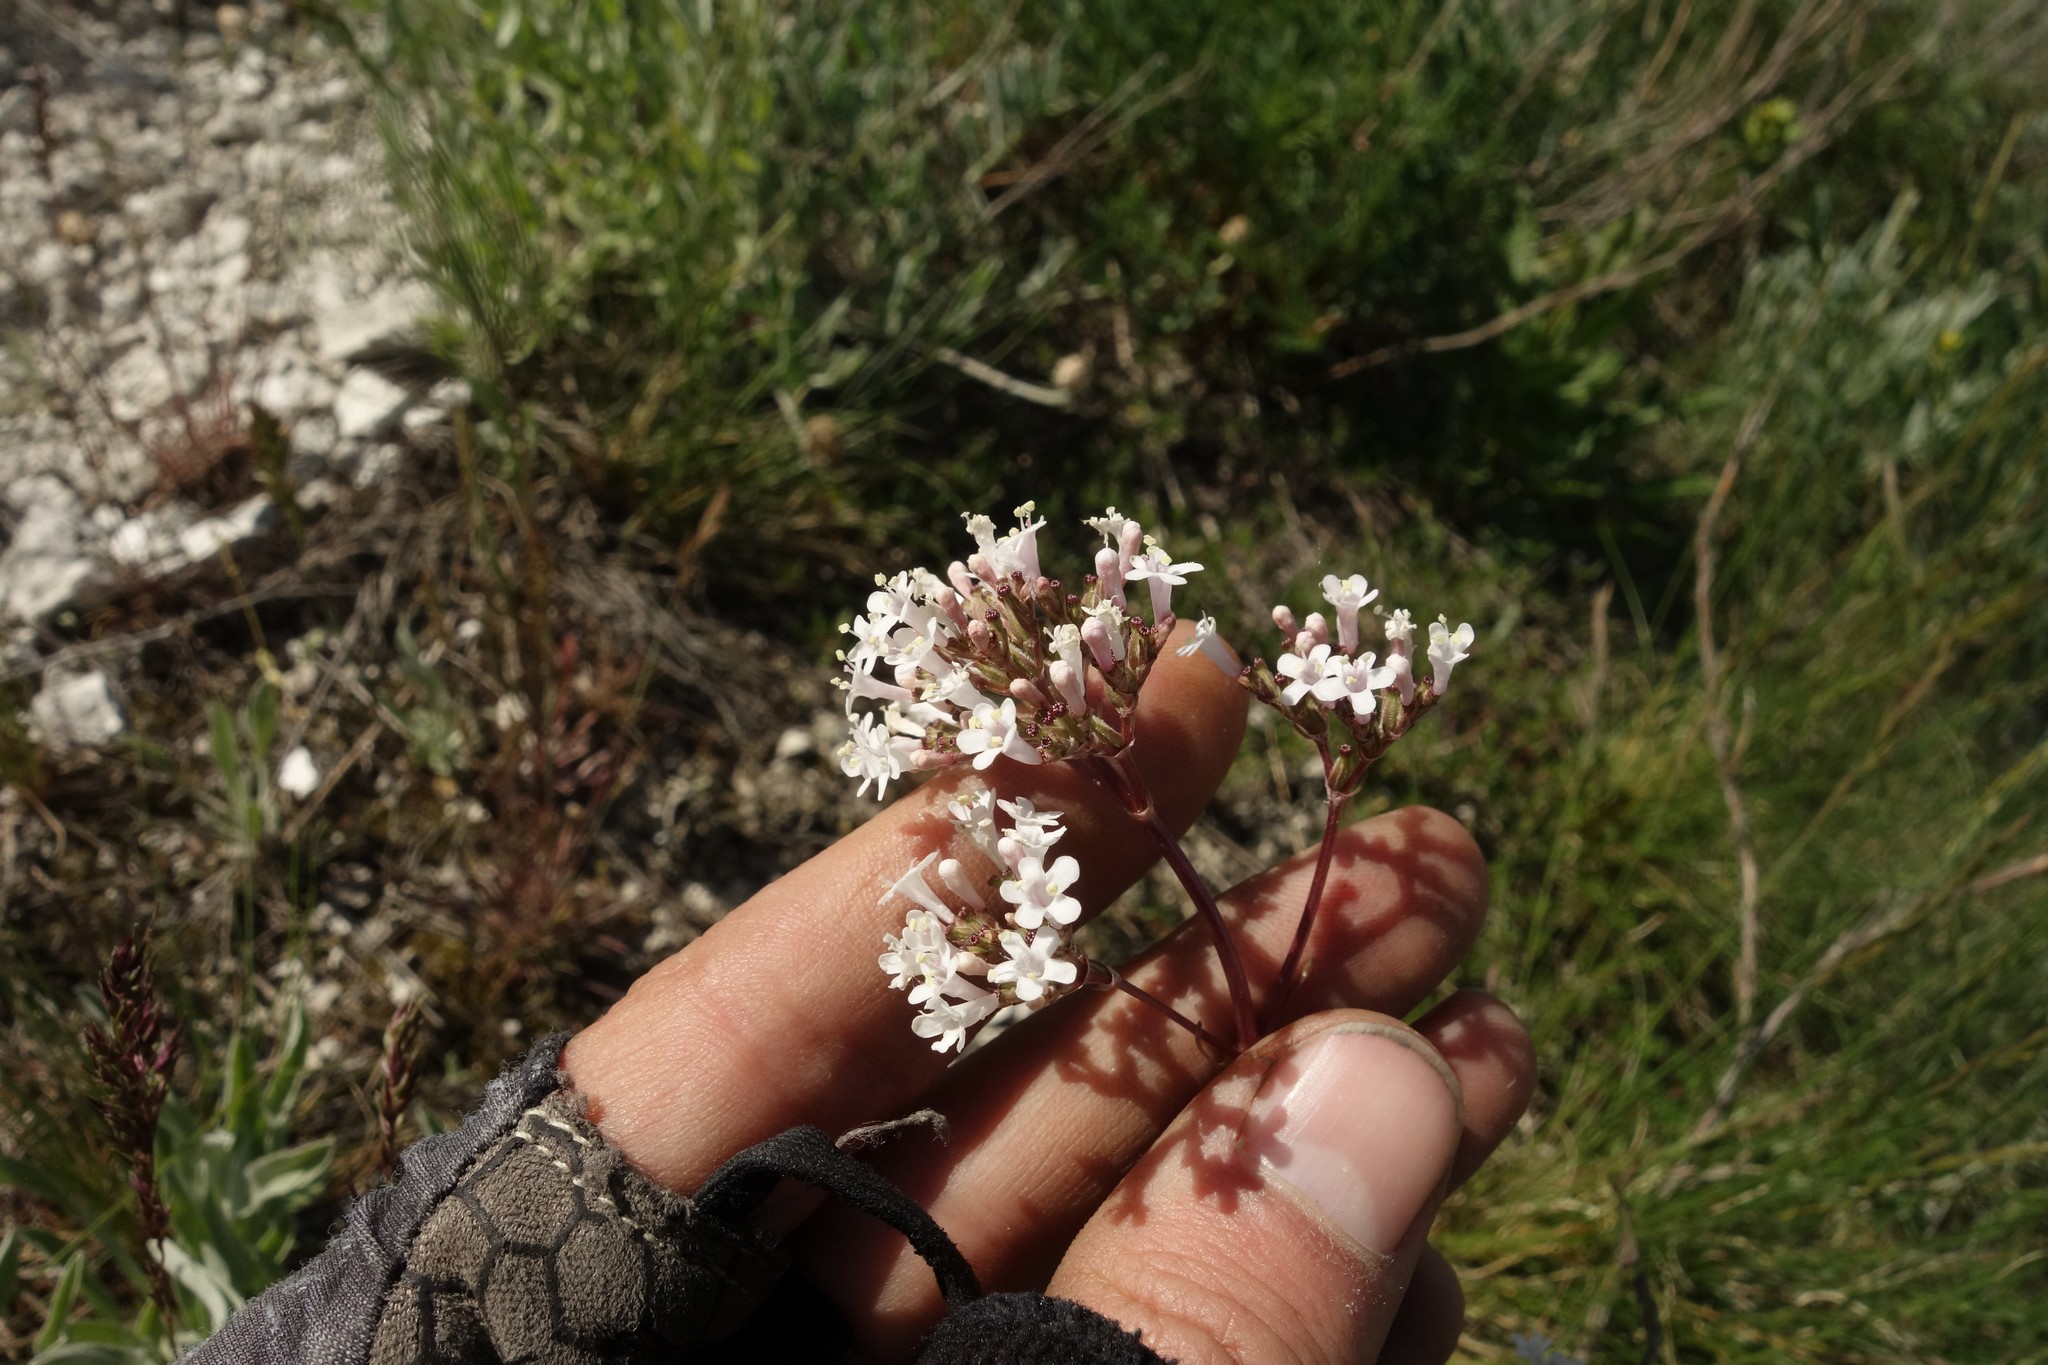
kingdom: Plantae
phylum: Tracheophyta
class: Magnoliopsida
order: Dipsacales
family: Caprifoliaceae
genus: Valeriana
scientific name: Valeriana tuberosa
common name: Tuberous valerian
